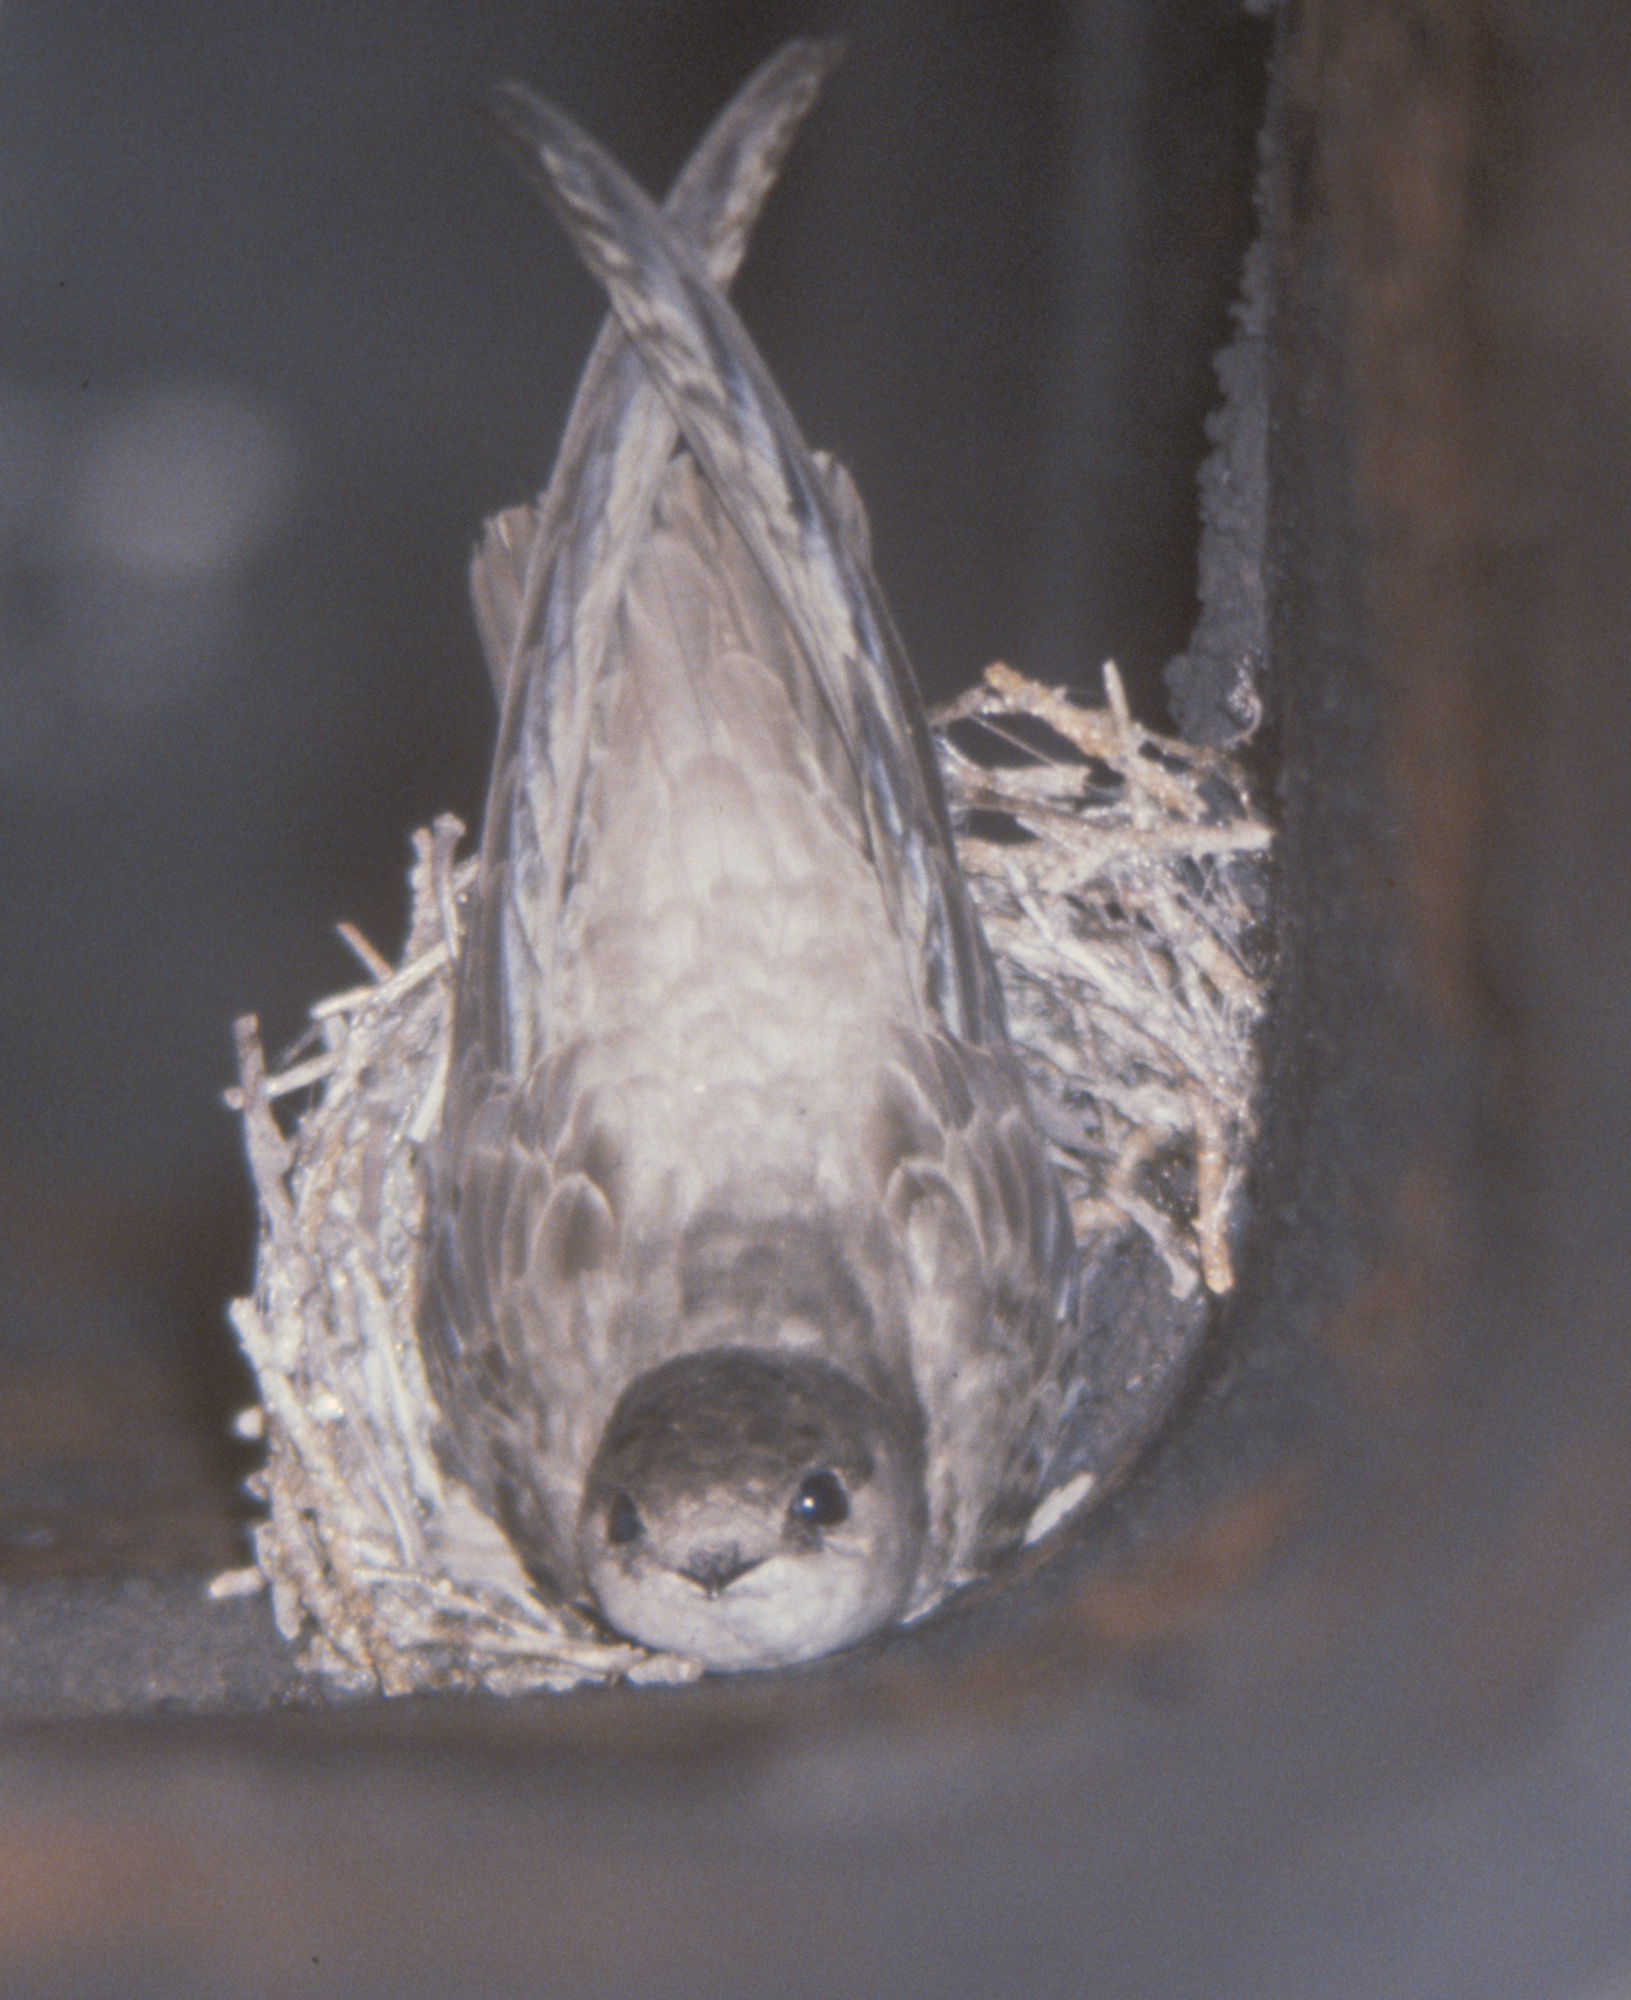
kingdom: Animalia
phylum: Chordata
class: Aves
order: Apodiformes
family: Apodidae
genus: Chaetura
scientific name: Chaetura vauxi
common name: Vaux's swift
